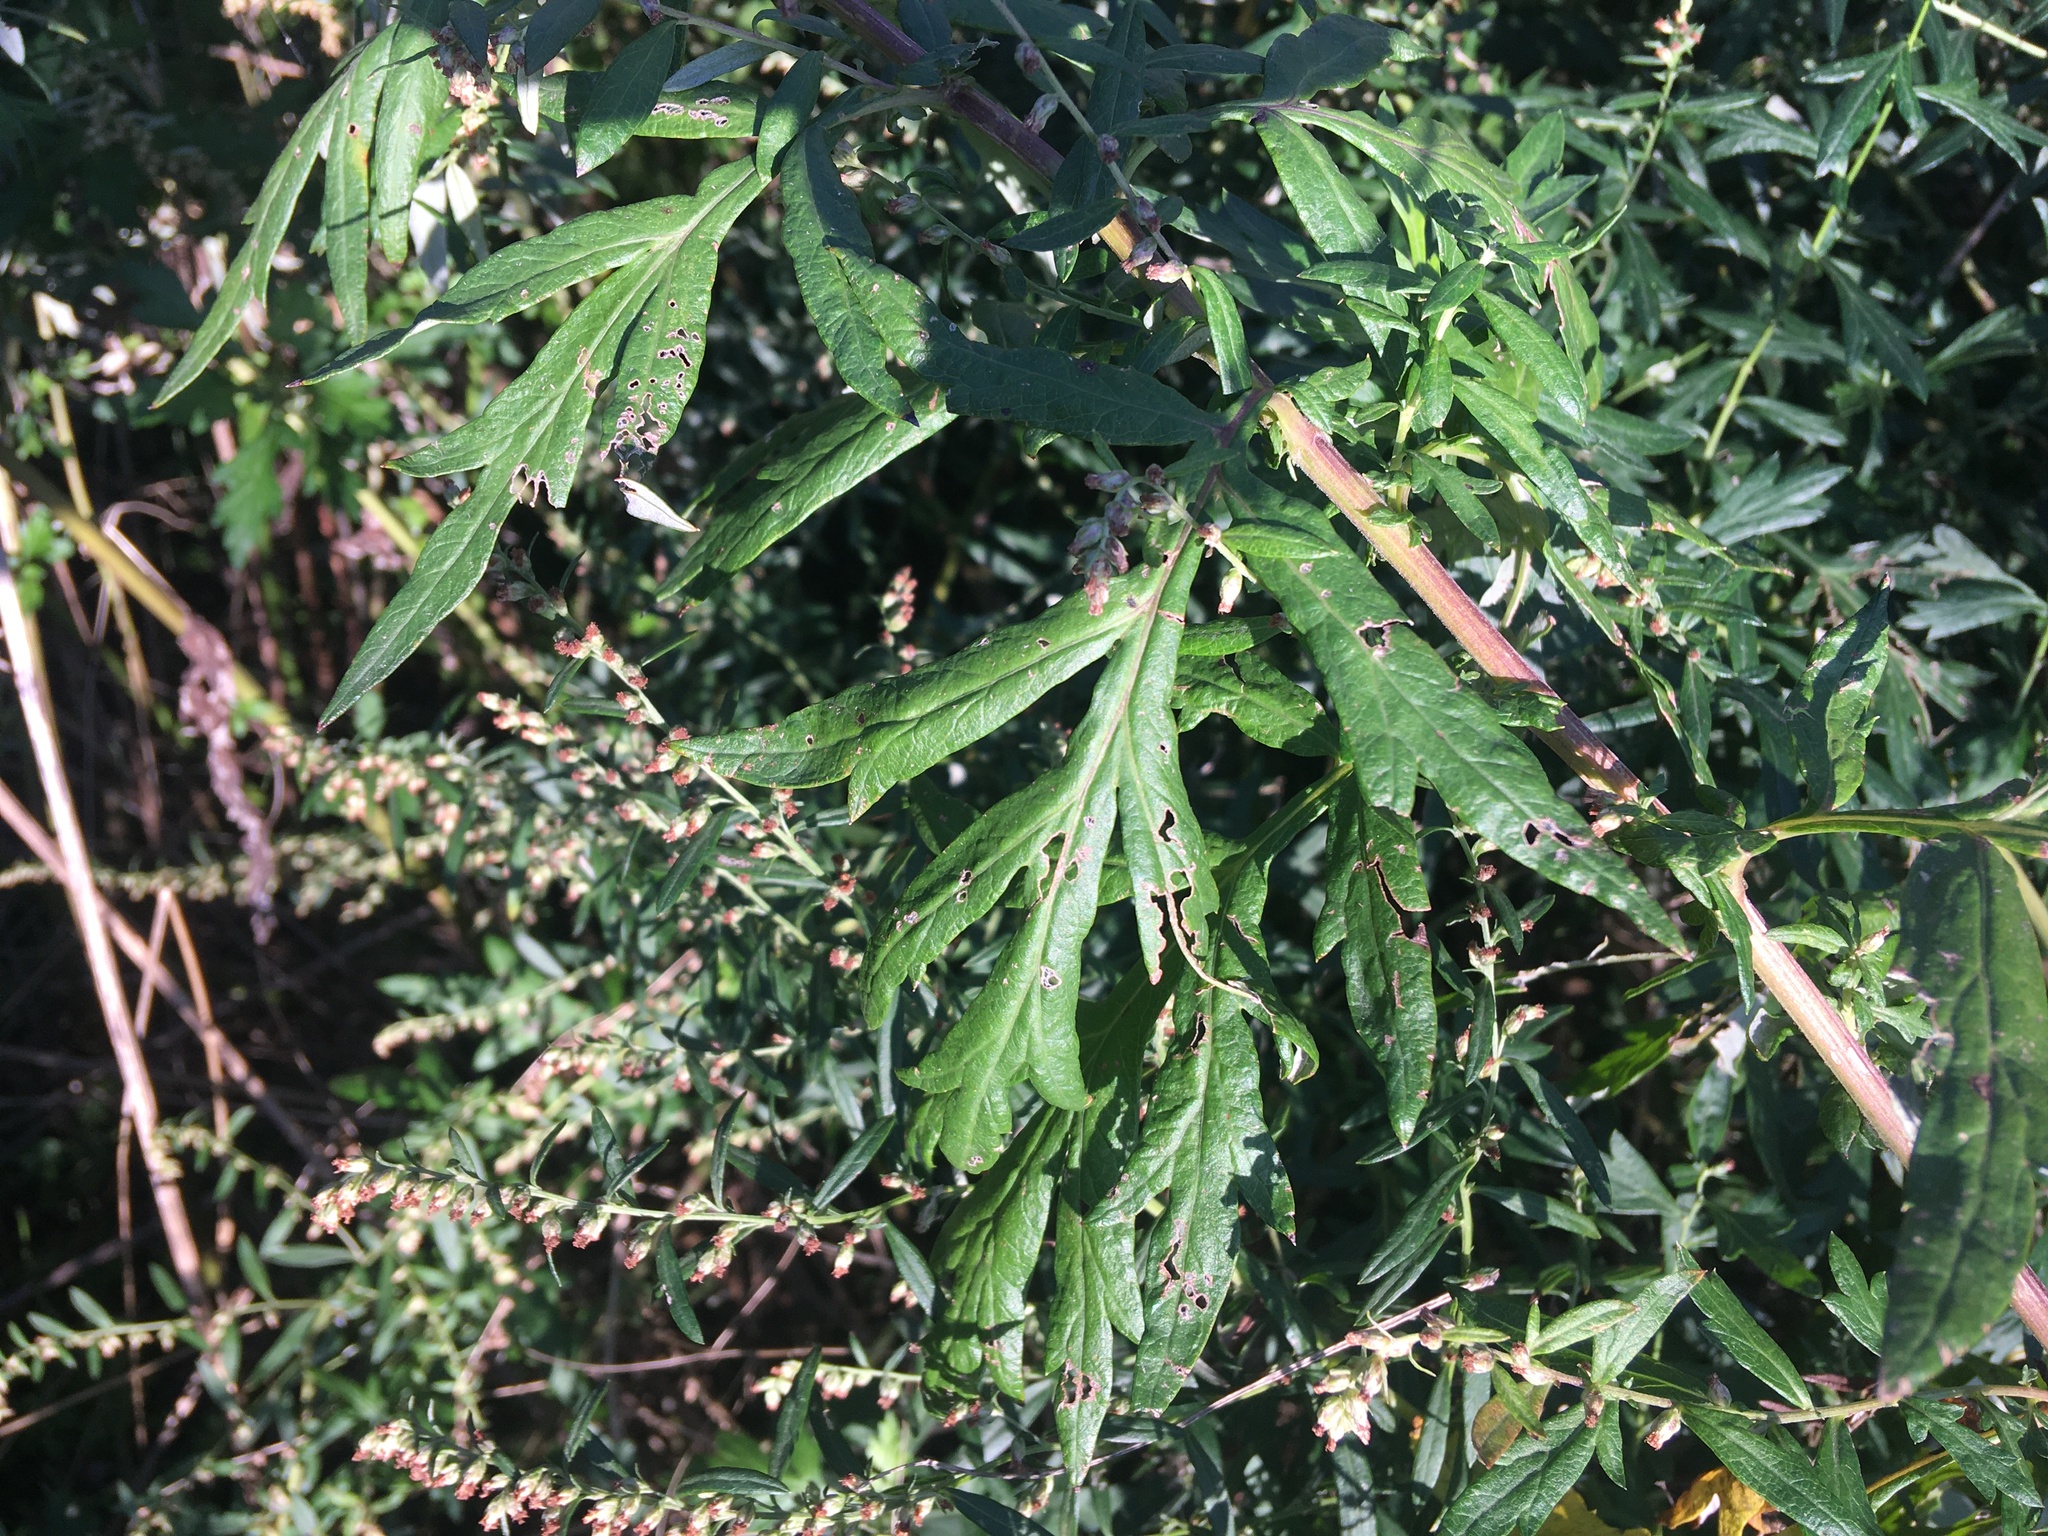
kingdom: Plantae
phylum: Tracheophyta
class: Magnoliopsida
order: Asterales
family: Asteraceae
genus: Artemisia
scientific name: Artemisia vulgaris
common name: Mugwort
